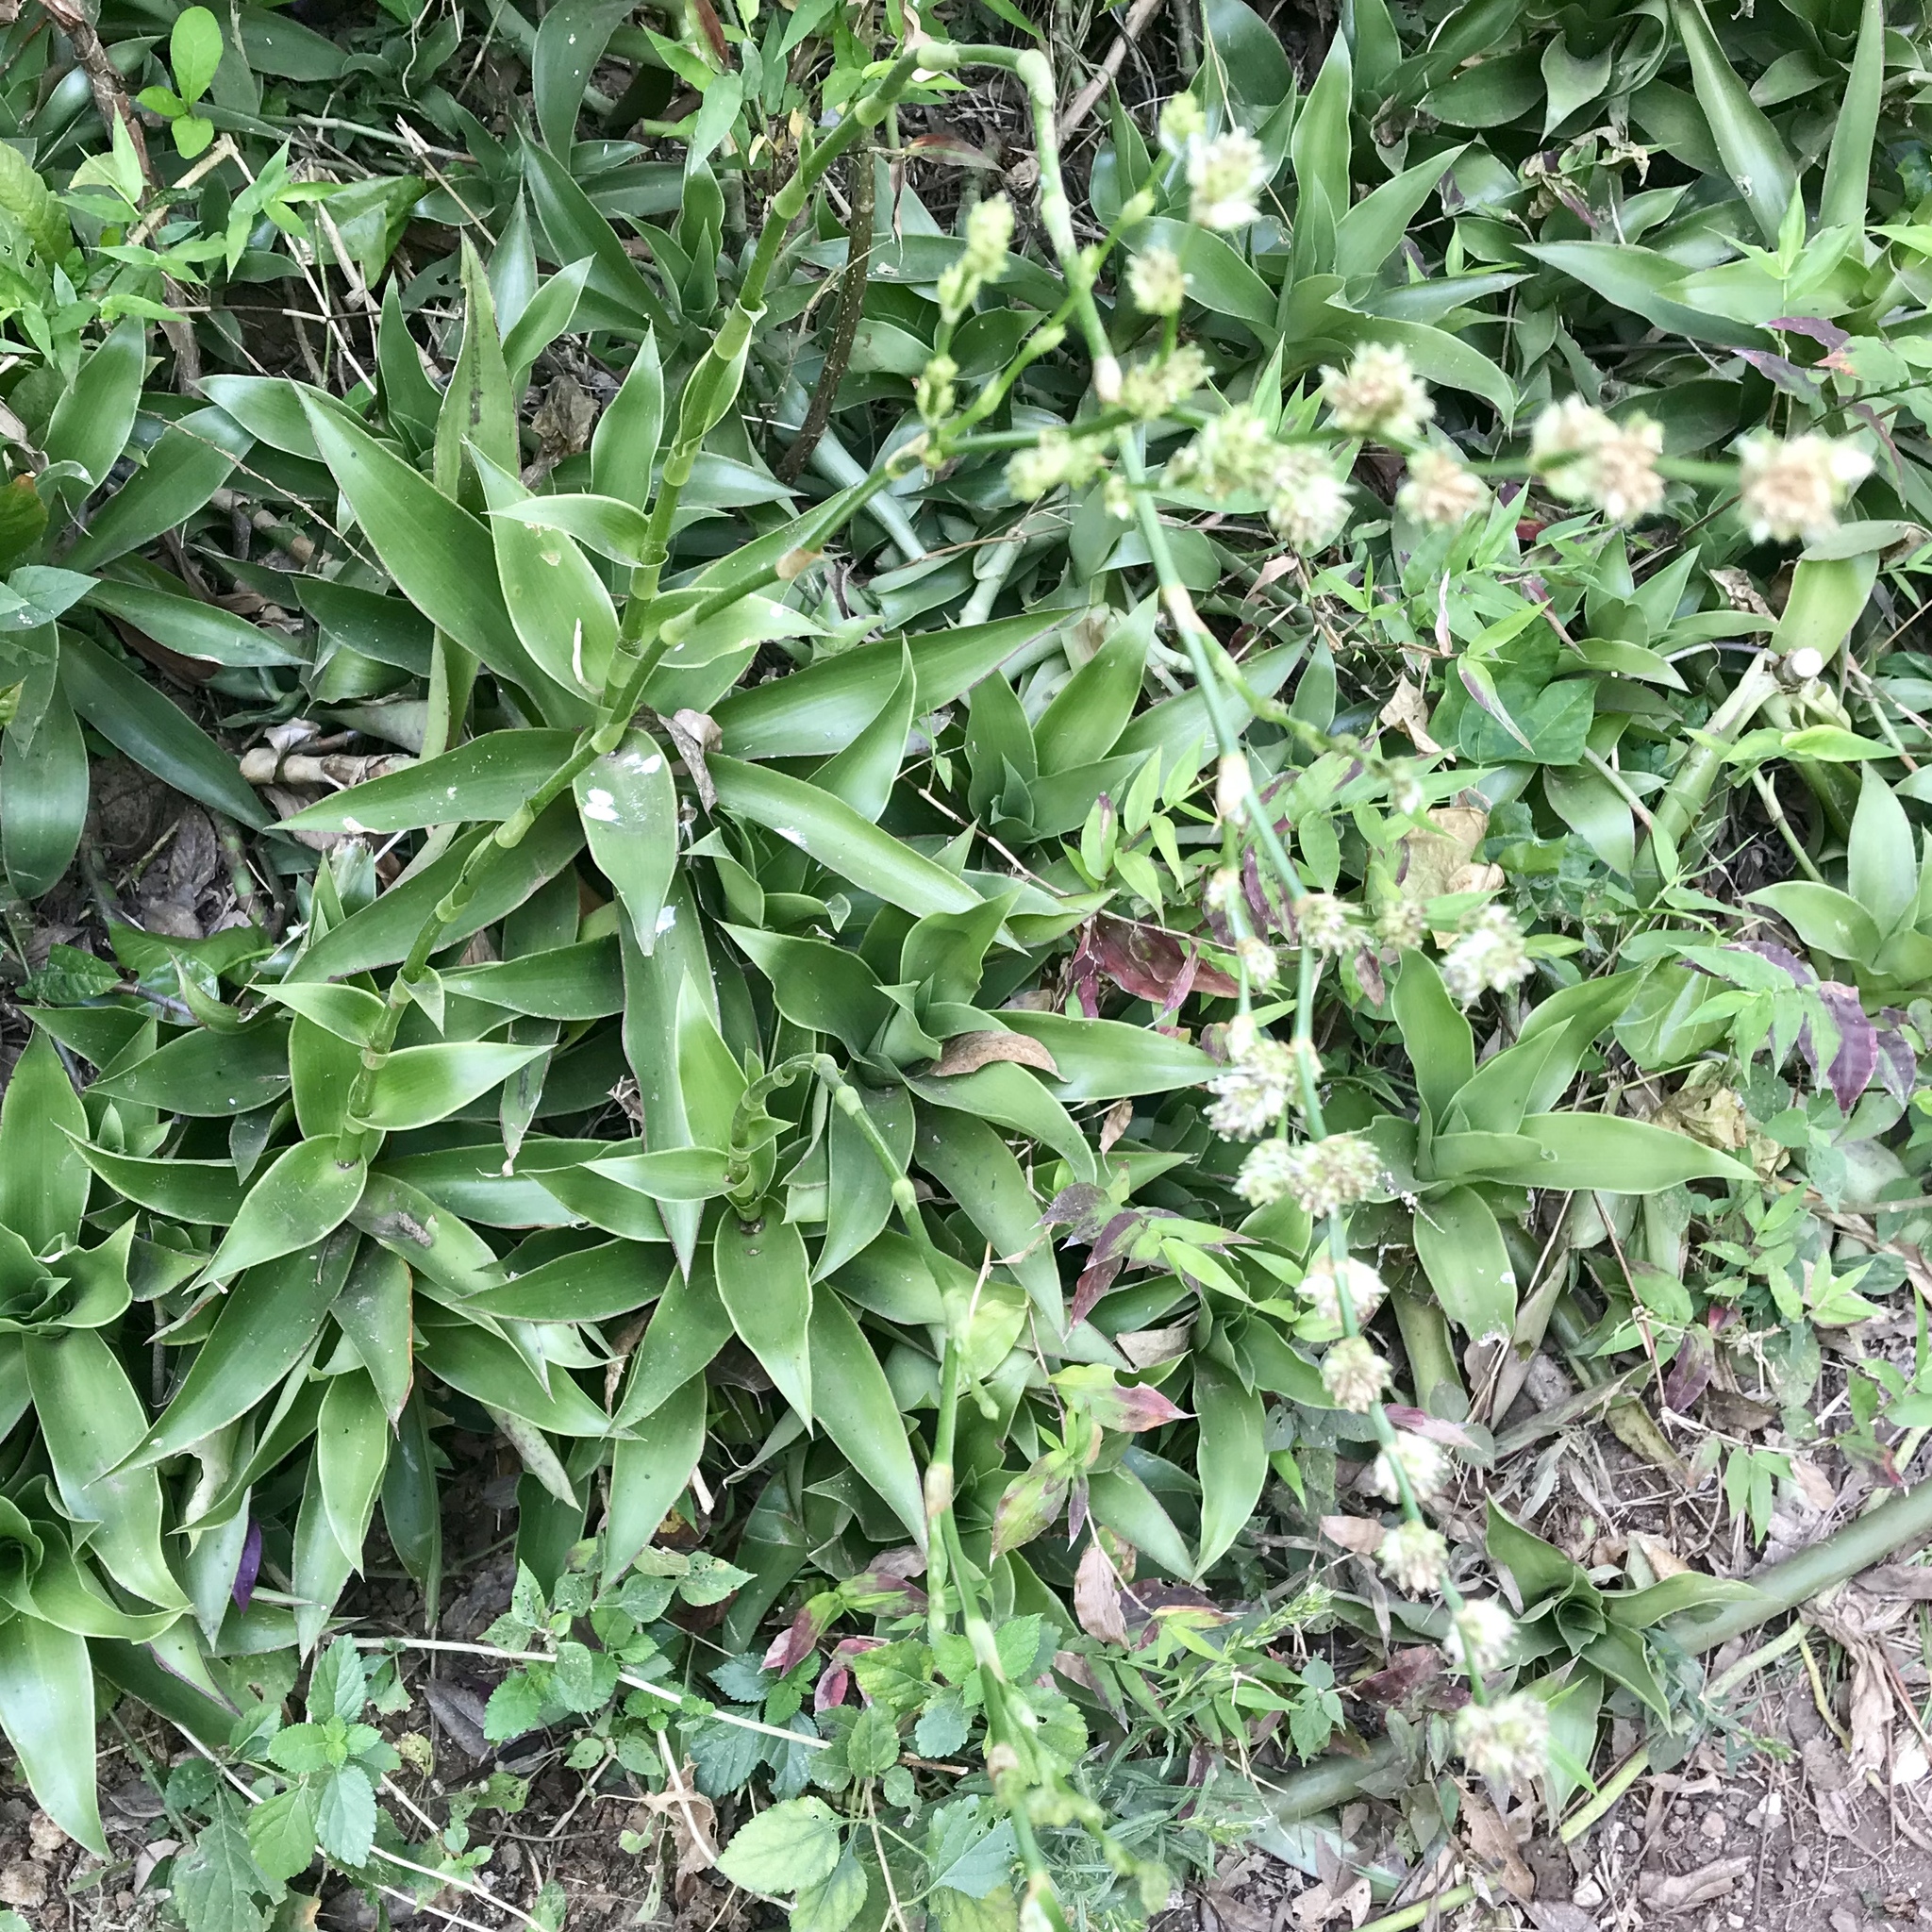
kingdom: Plantae
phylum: Tracheophyta
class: Liliopsida
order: Commelinales
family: Commelinaceae
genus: Callisia
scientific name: Callisia fragrans
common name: Basketplant
